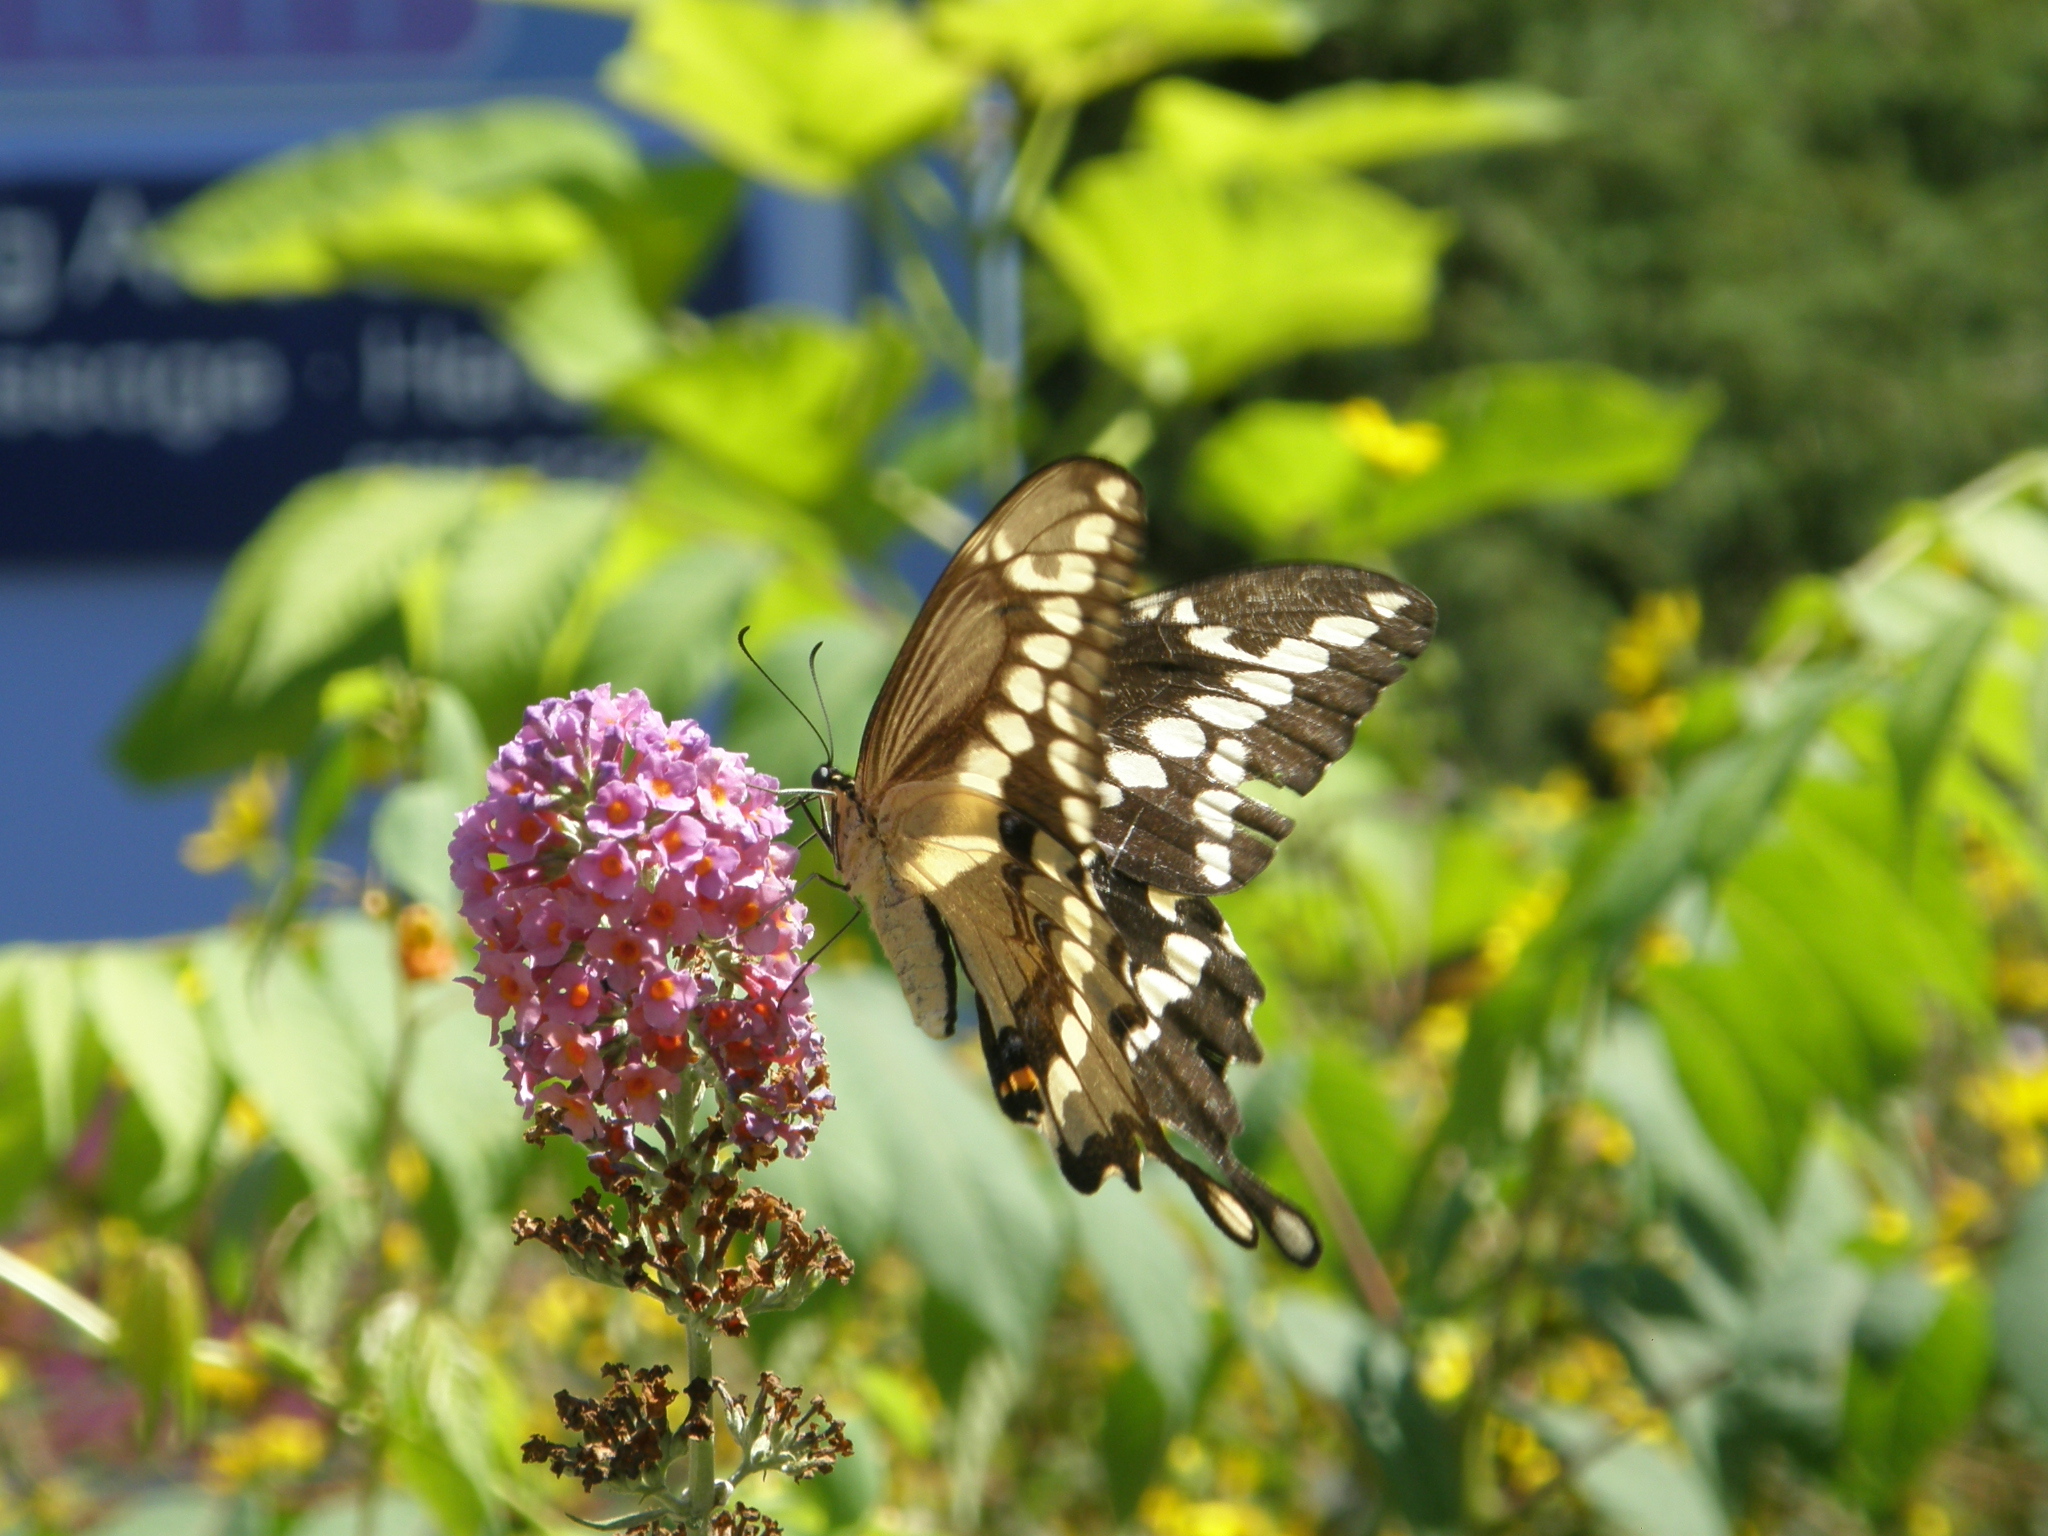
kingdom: Animalia
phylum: Arthropoda
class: Insecta
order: Lepidoptera
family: Papilionidae
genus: Papilio
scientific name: Papilio cresphontes
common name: Giant swallowtail
